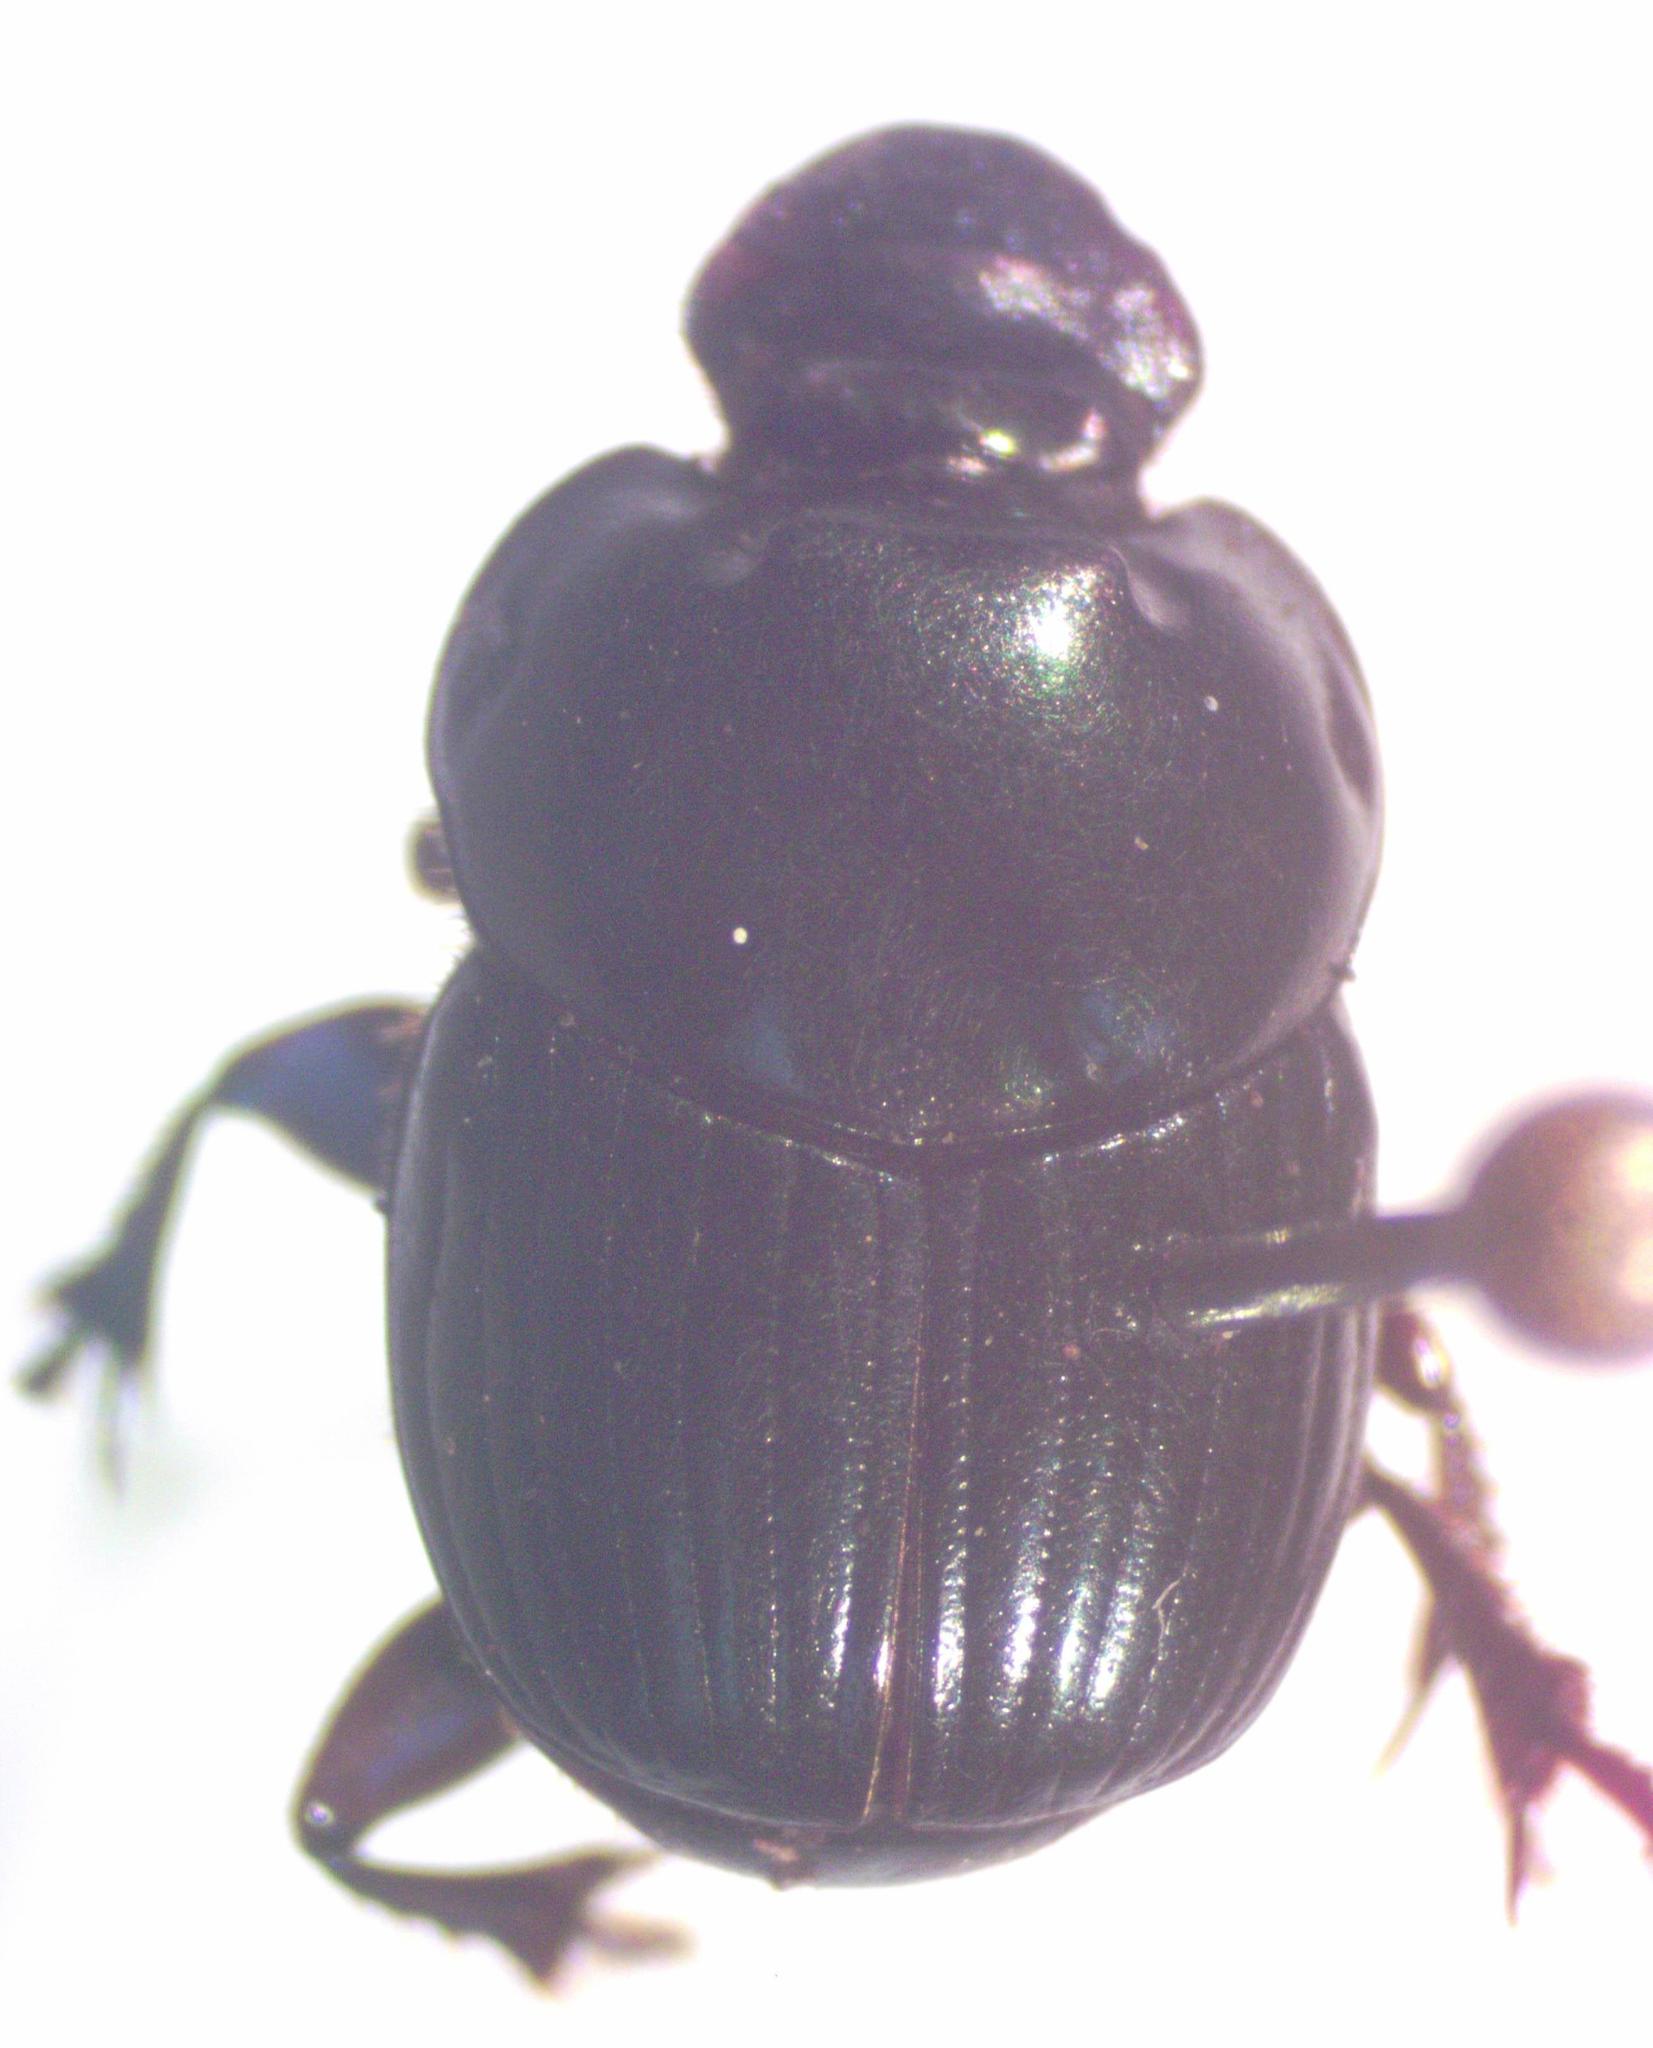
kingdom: Animalia
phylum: Arthropoda
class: Insecta
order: Coleoptera
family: Scarabaeidae
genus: Onthophagus
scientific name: Onthophagus batesi
